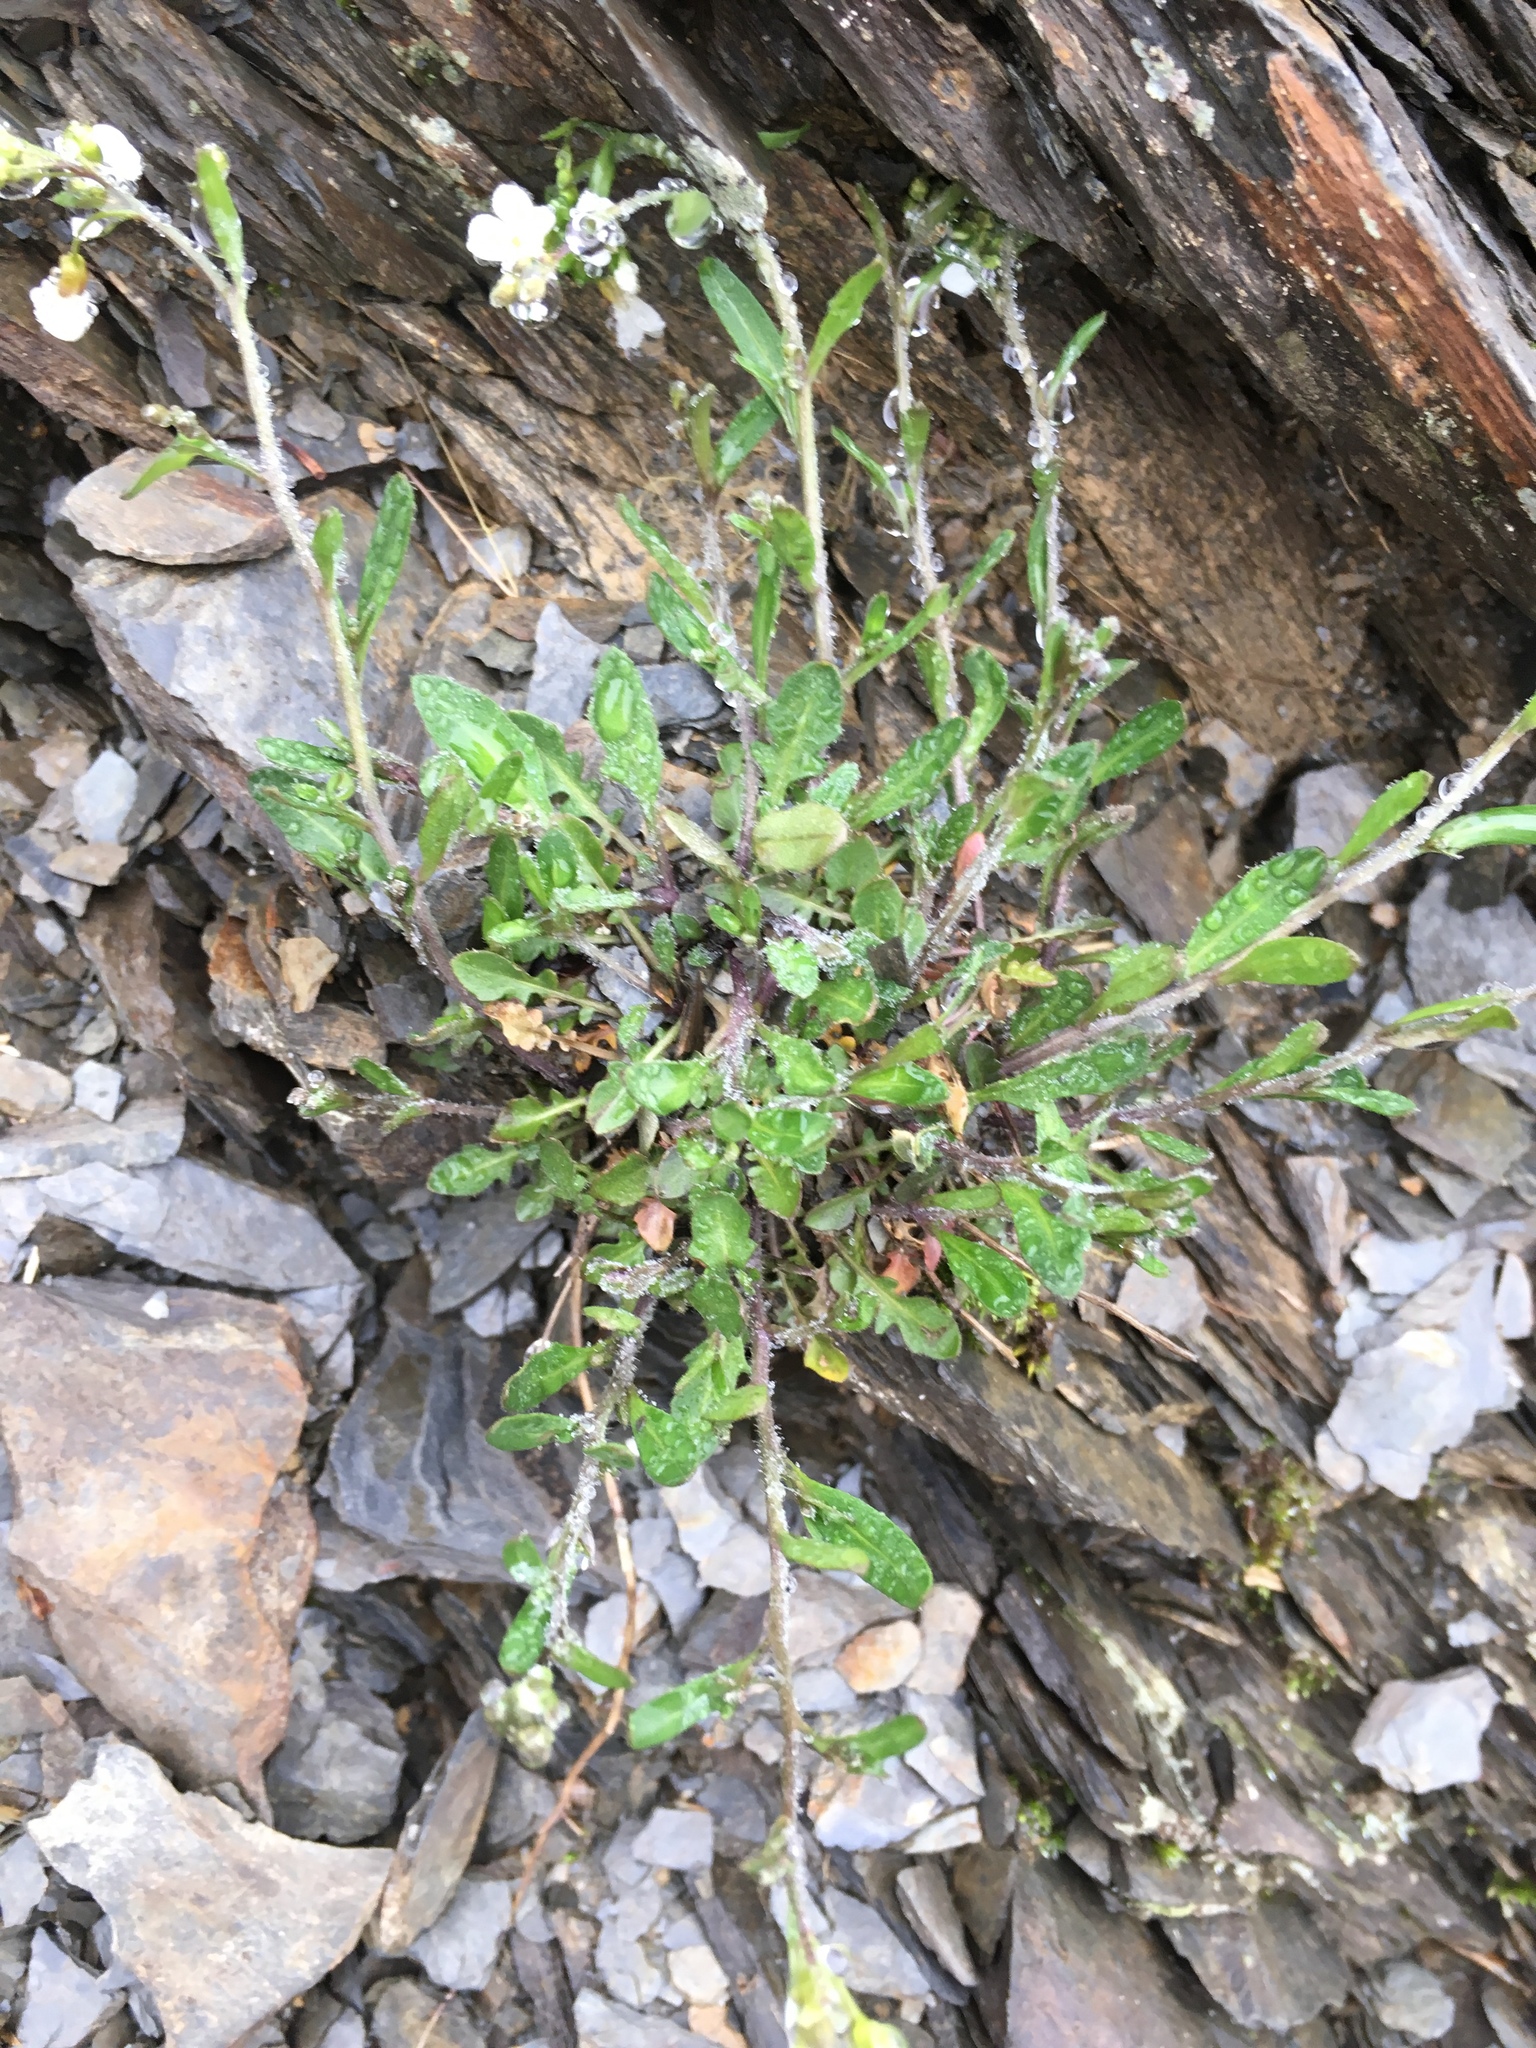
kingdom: Plantae
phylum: Tracheophyta
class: Magnoliopsida
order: Brassicales
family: Brassicaceae
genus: Arabidopsis
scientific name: Arabidopsis lyrata
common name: Lyrate rockcress
